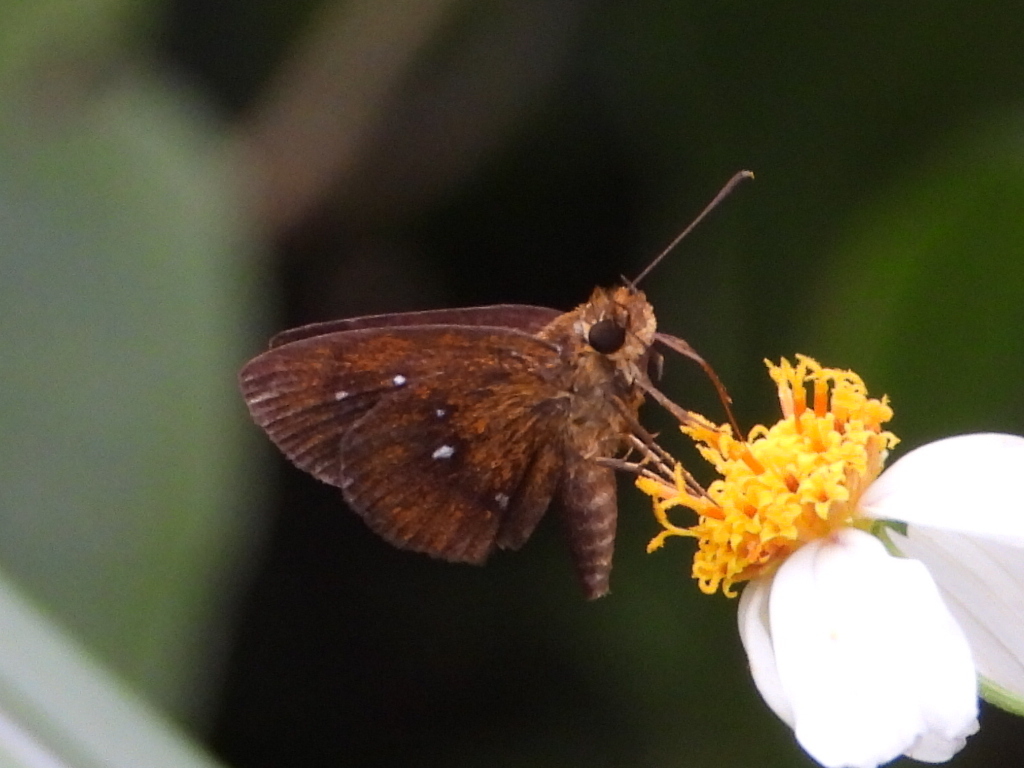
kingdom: Animalia
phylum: Arthropoda
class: Insecta
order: Lepidoptera
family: Hesperiidae
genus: Iambrix
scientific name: Iambrix salsala
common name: Chestnut bob
